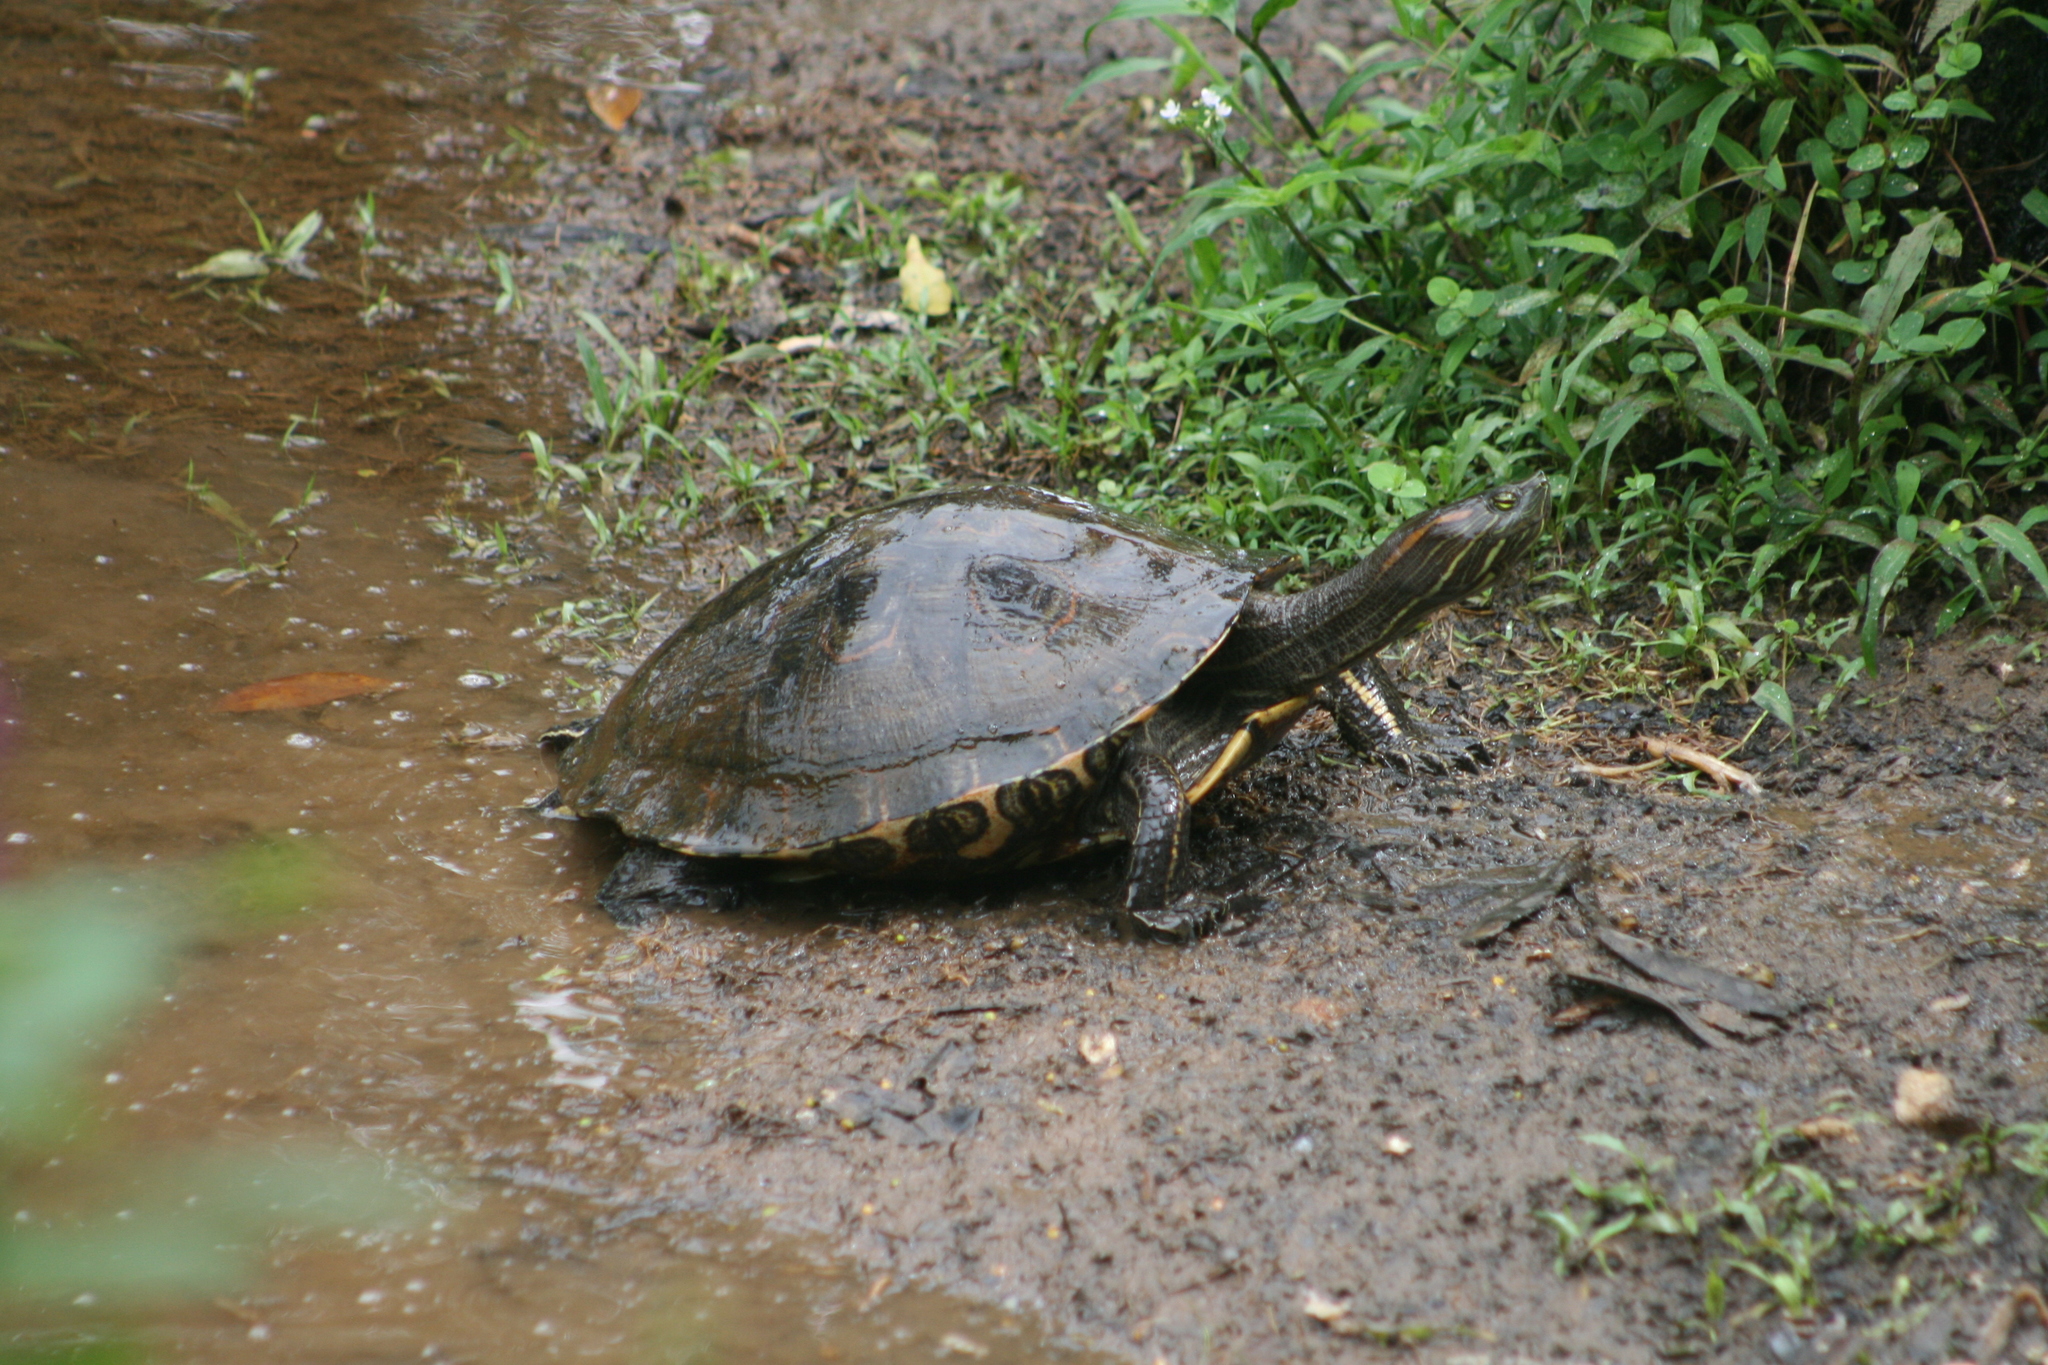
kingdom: Animalia
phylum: Chordata
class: Testudines
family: Emydidae
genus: Trachemys
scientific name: Trachemys venusta
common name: Mesoamerican slider
